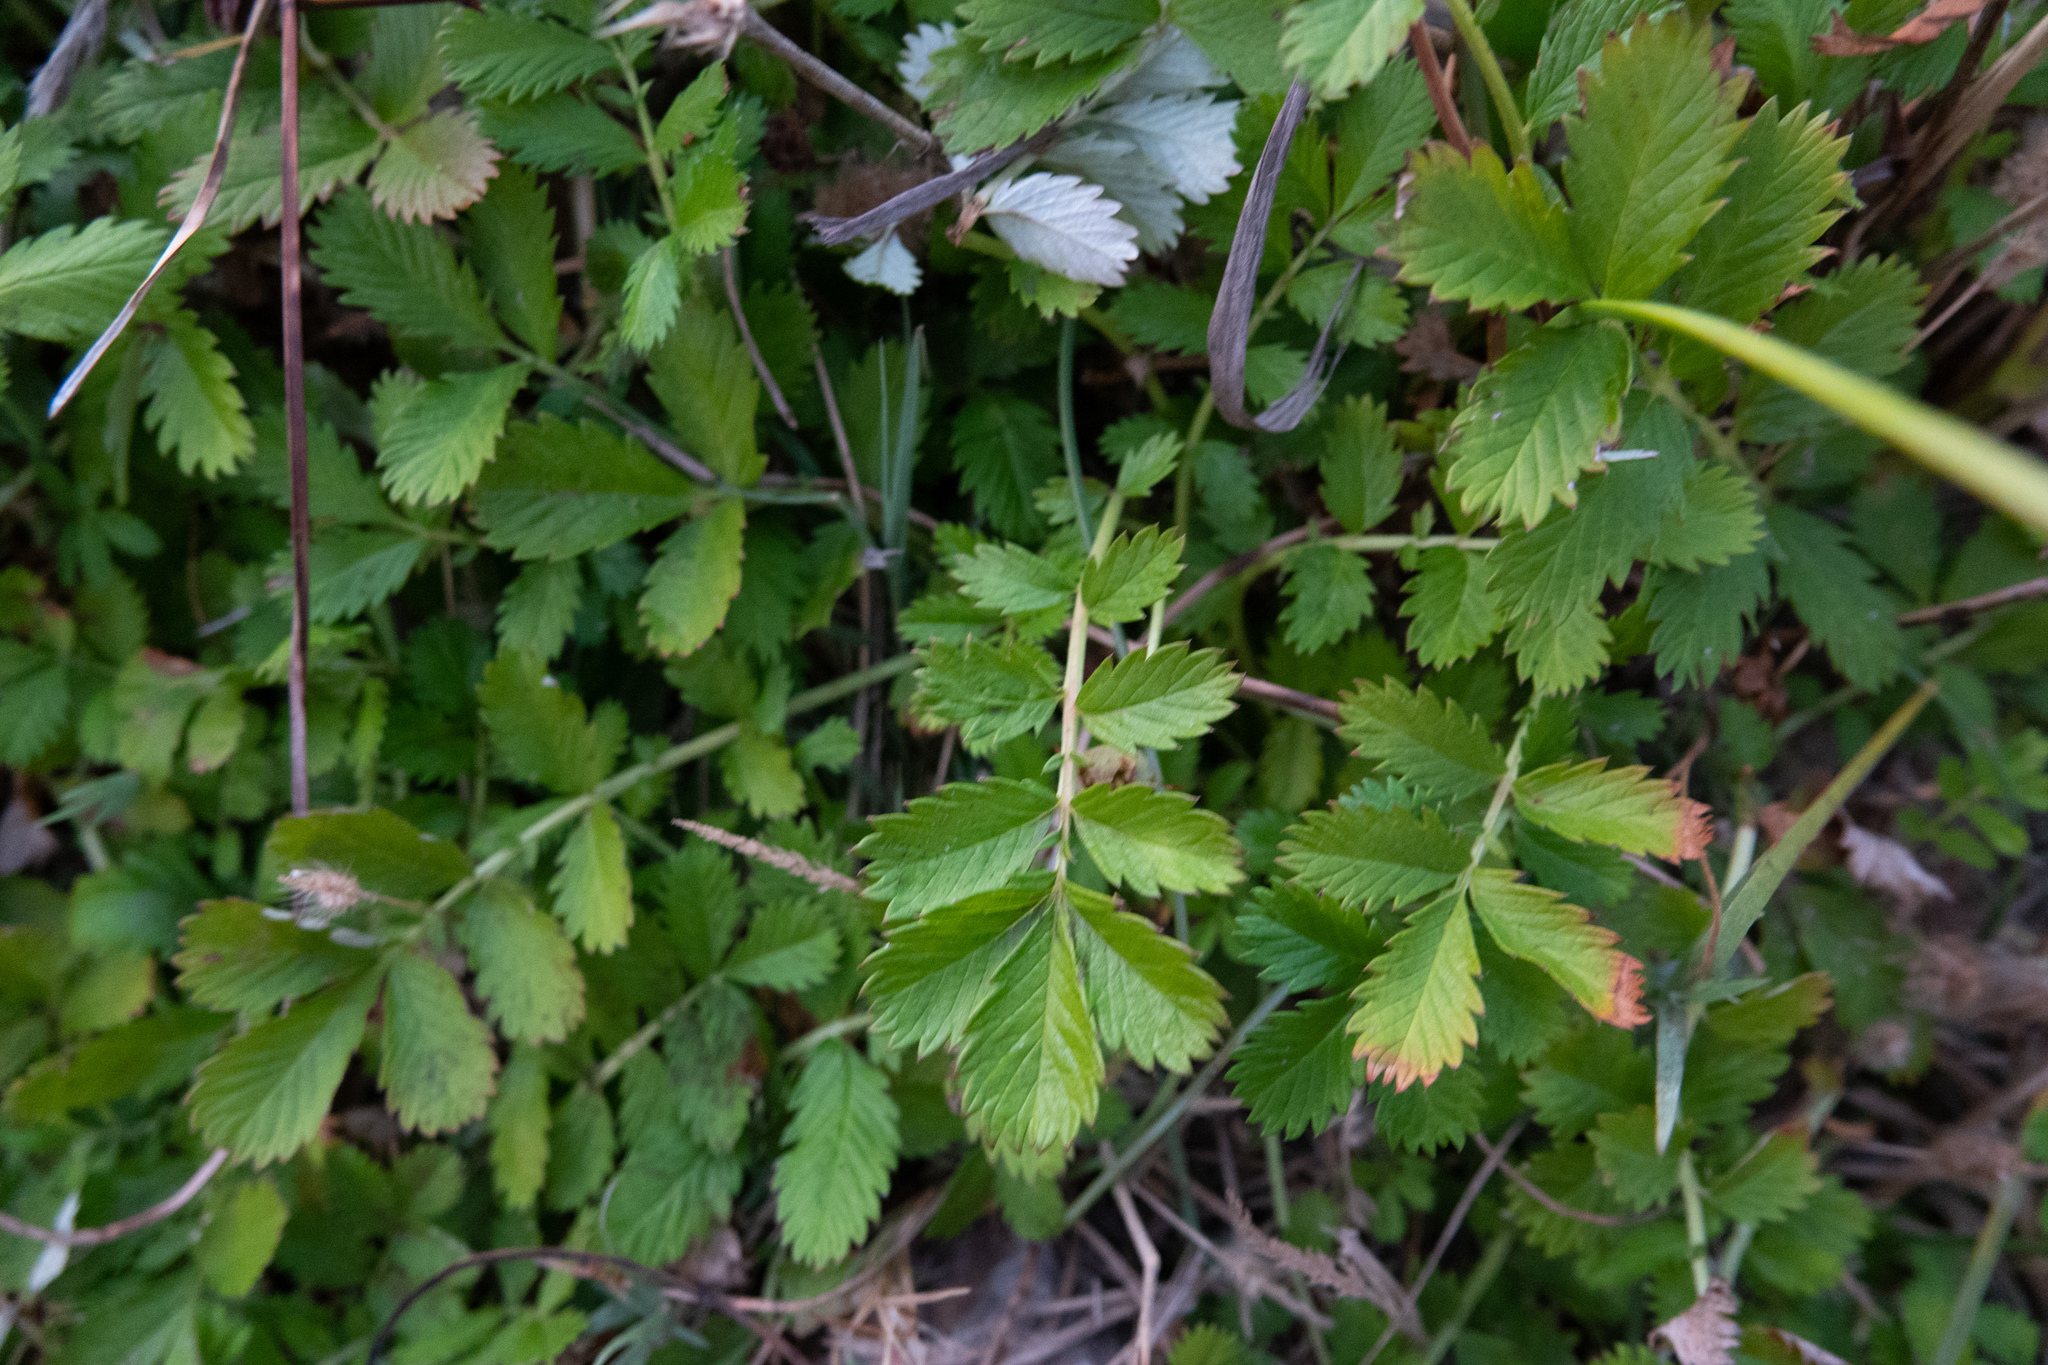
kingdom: Plantae
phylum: Tracheophyta
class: Magnoliopsida
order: Rosales
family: Rosaceae
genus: Argentina
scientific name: Argentina anserina
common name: Common silverweed
